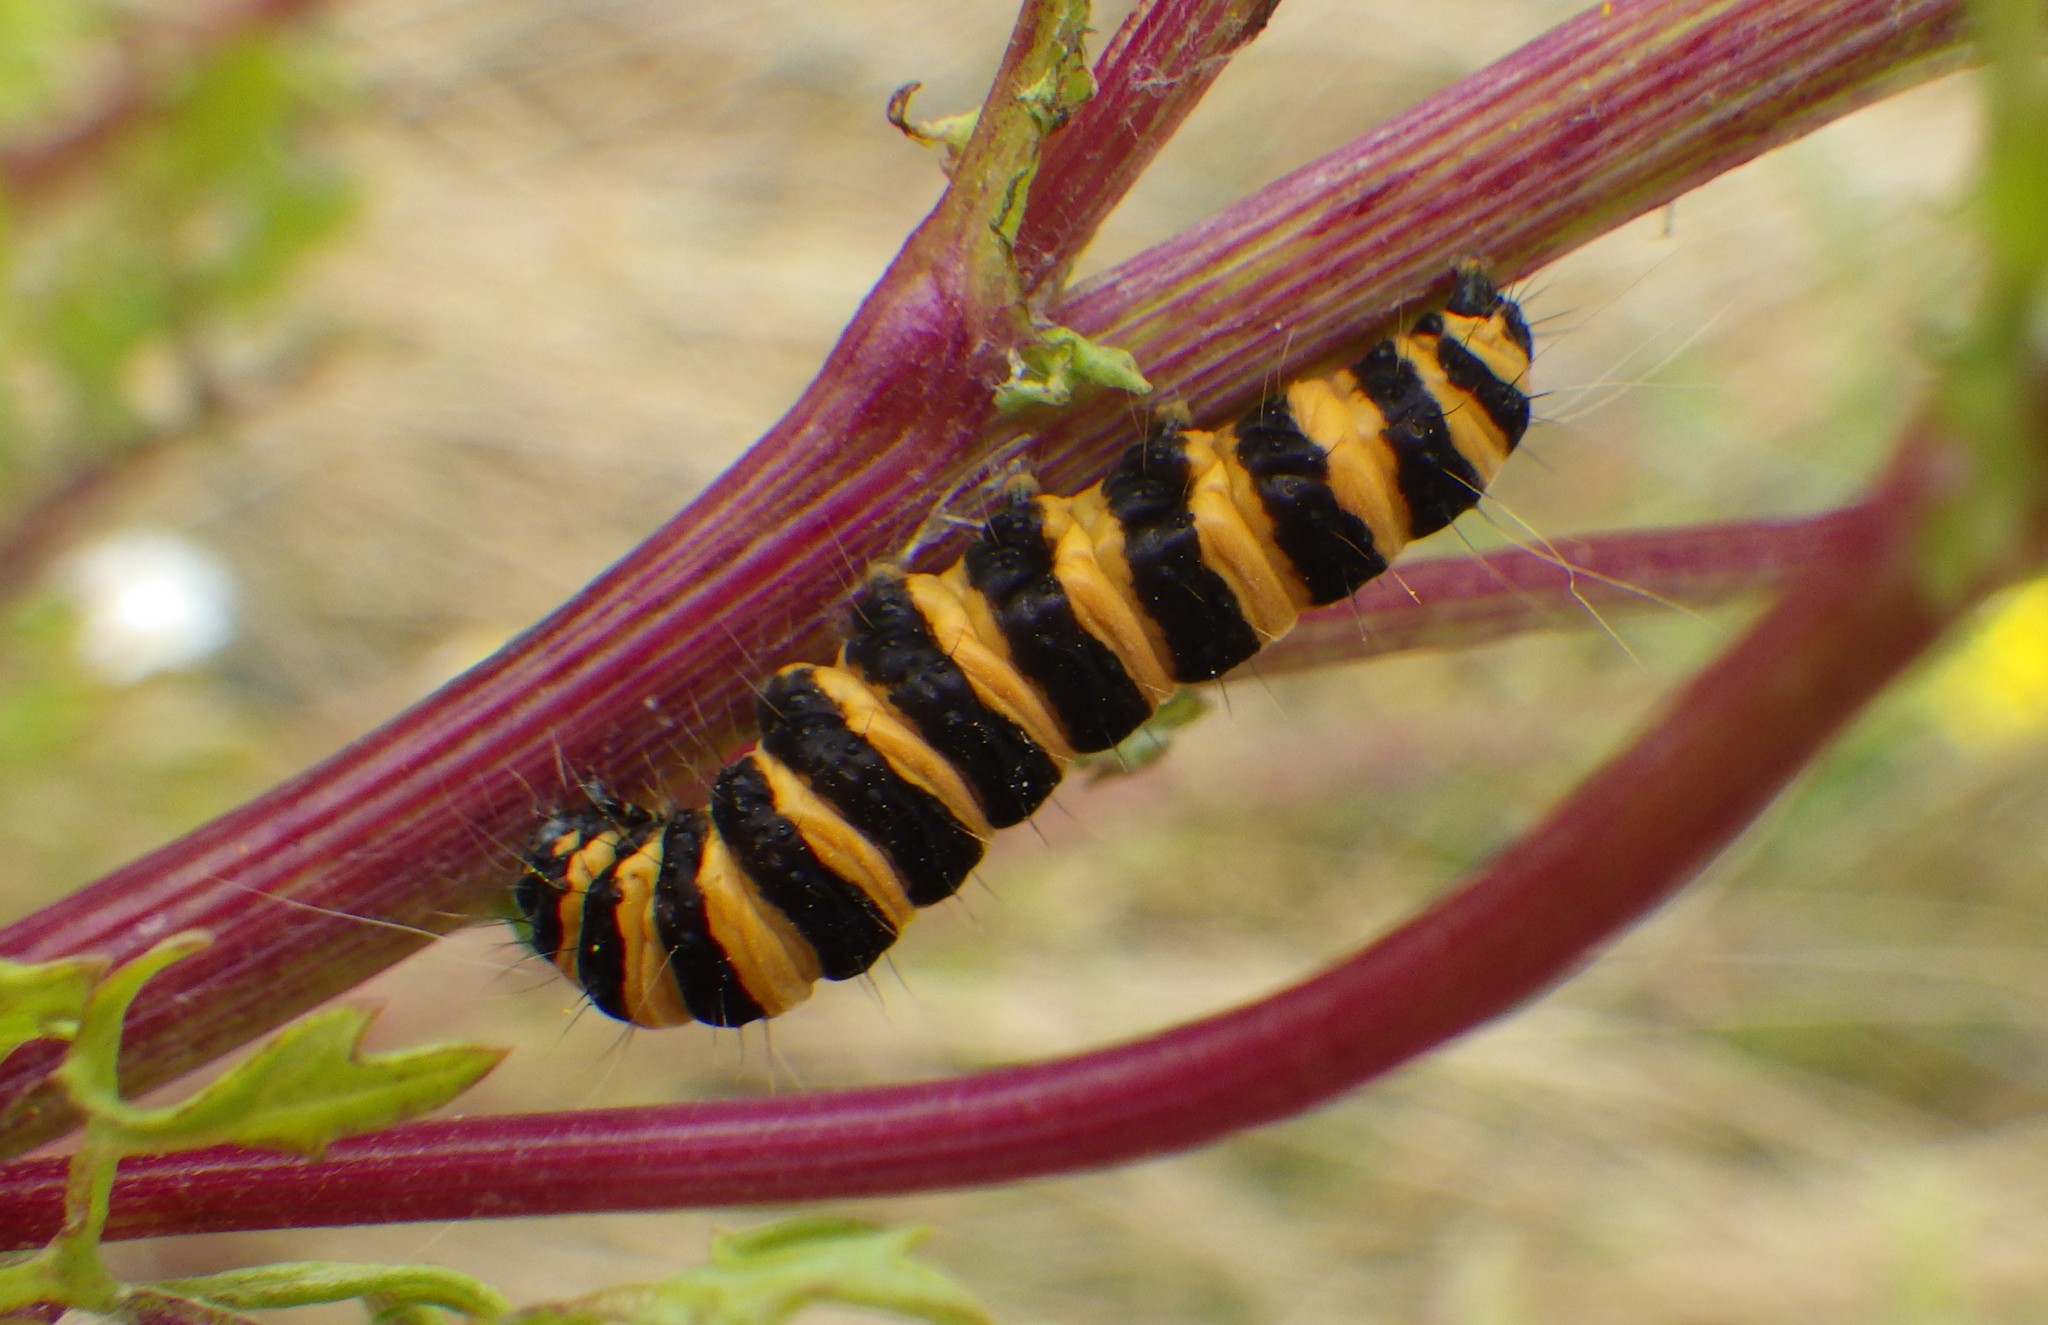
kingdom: Animalia
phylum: Arthropoda
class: Insecta
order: Lepidoptera
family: Erebidae
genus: Tyria
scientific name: Tyria jacobaeae
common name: Cinnabar
